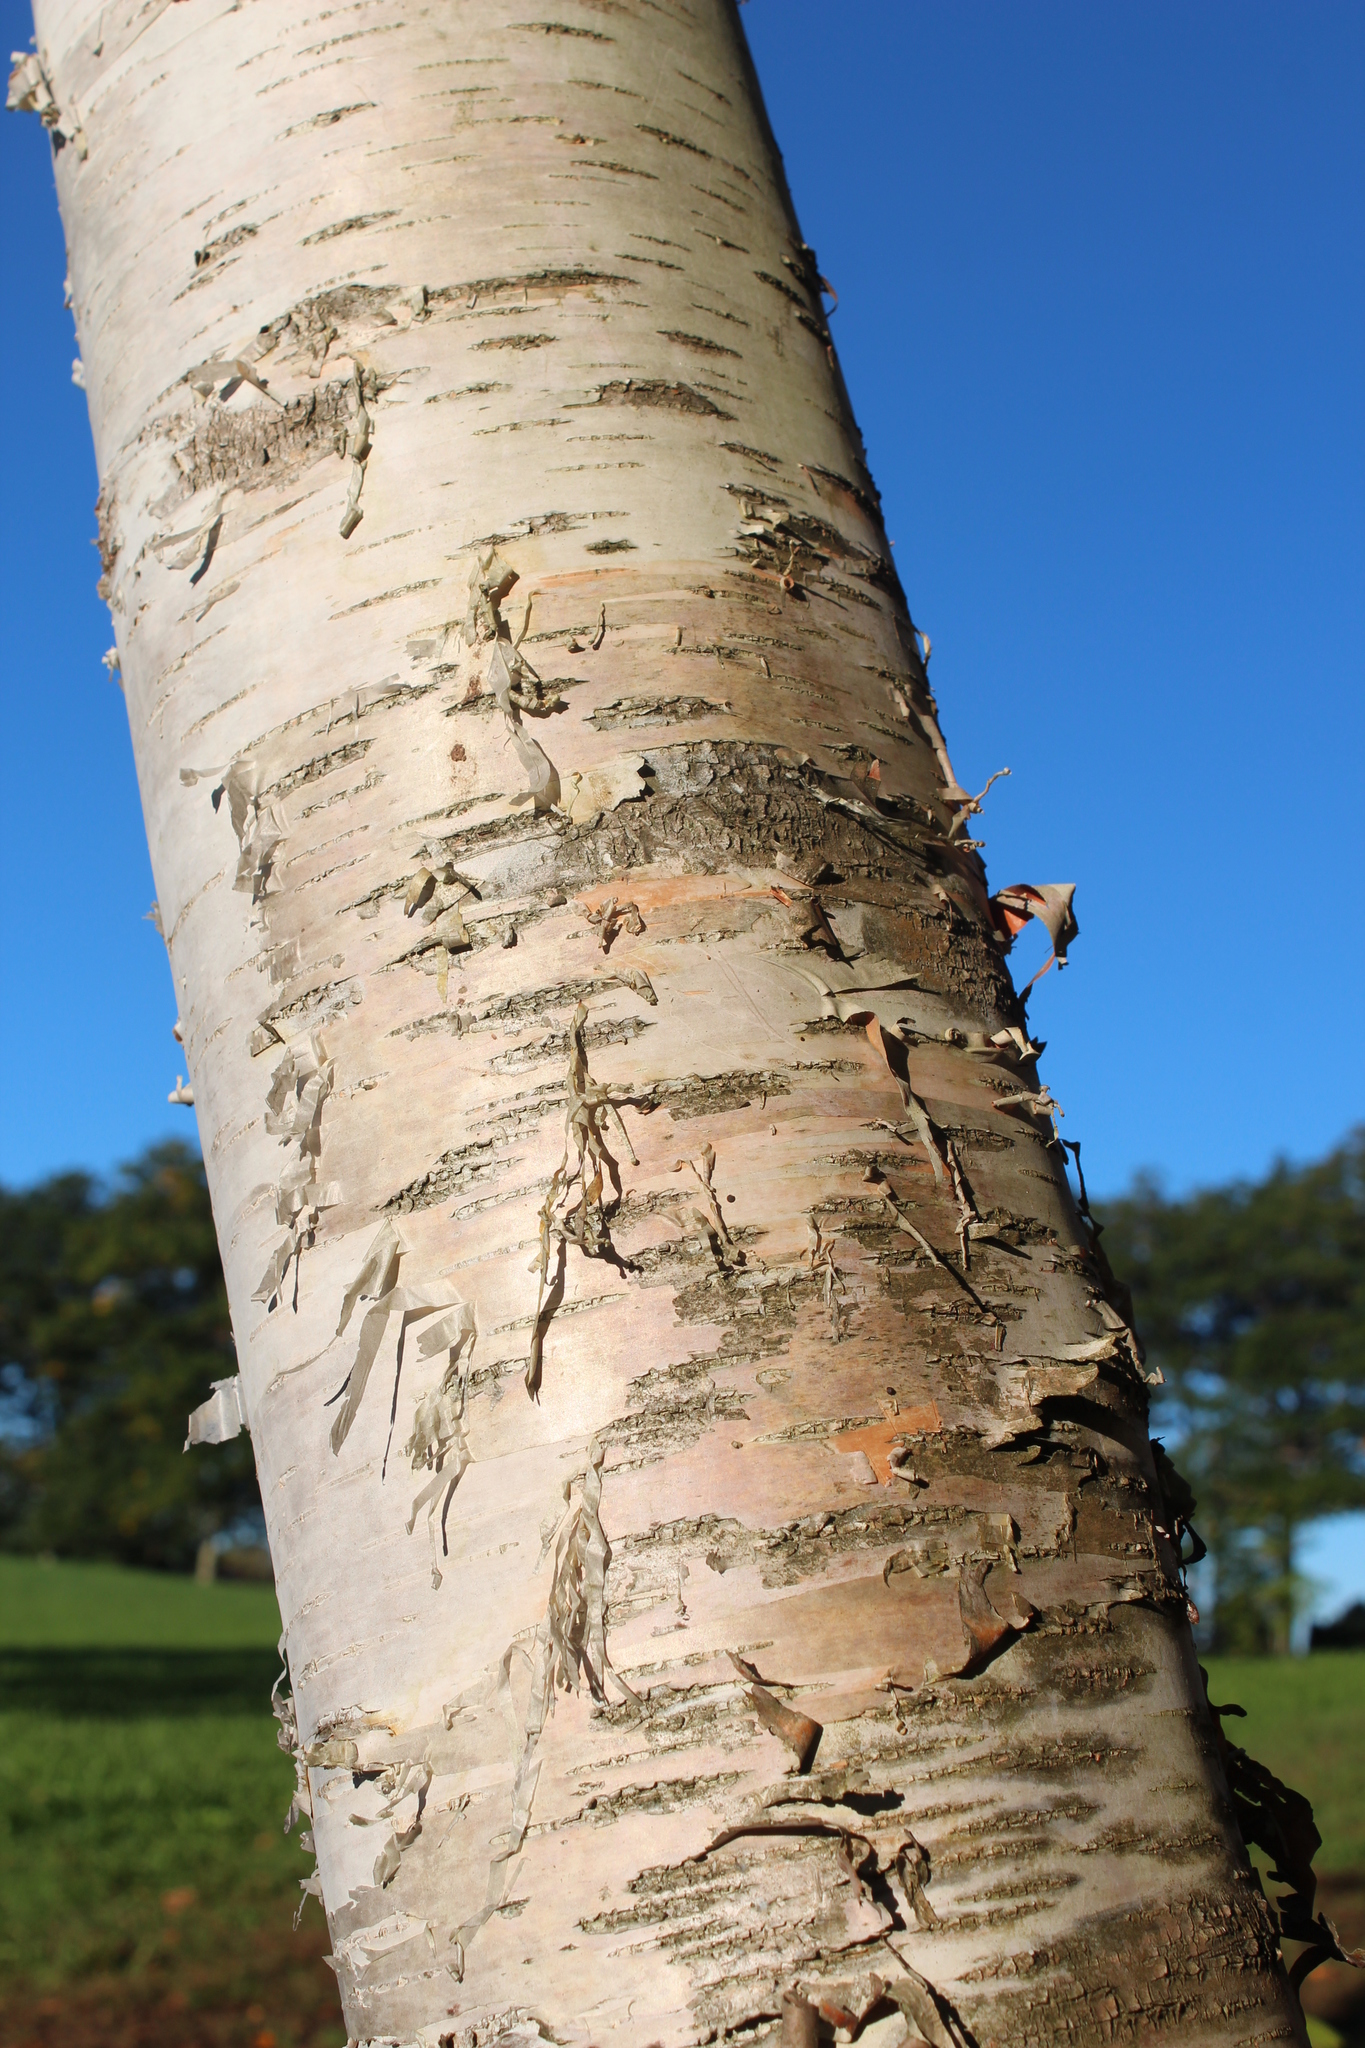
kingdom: Plantae
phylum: Tracheophyta
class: Magnoliopsida
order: Fagales
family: Betulaceae
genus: Betula
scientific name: Betula papyrifera
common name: Paper birch
